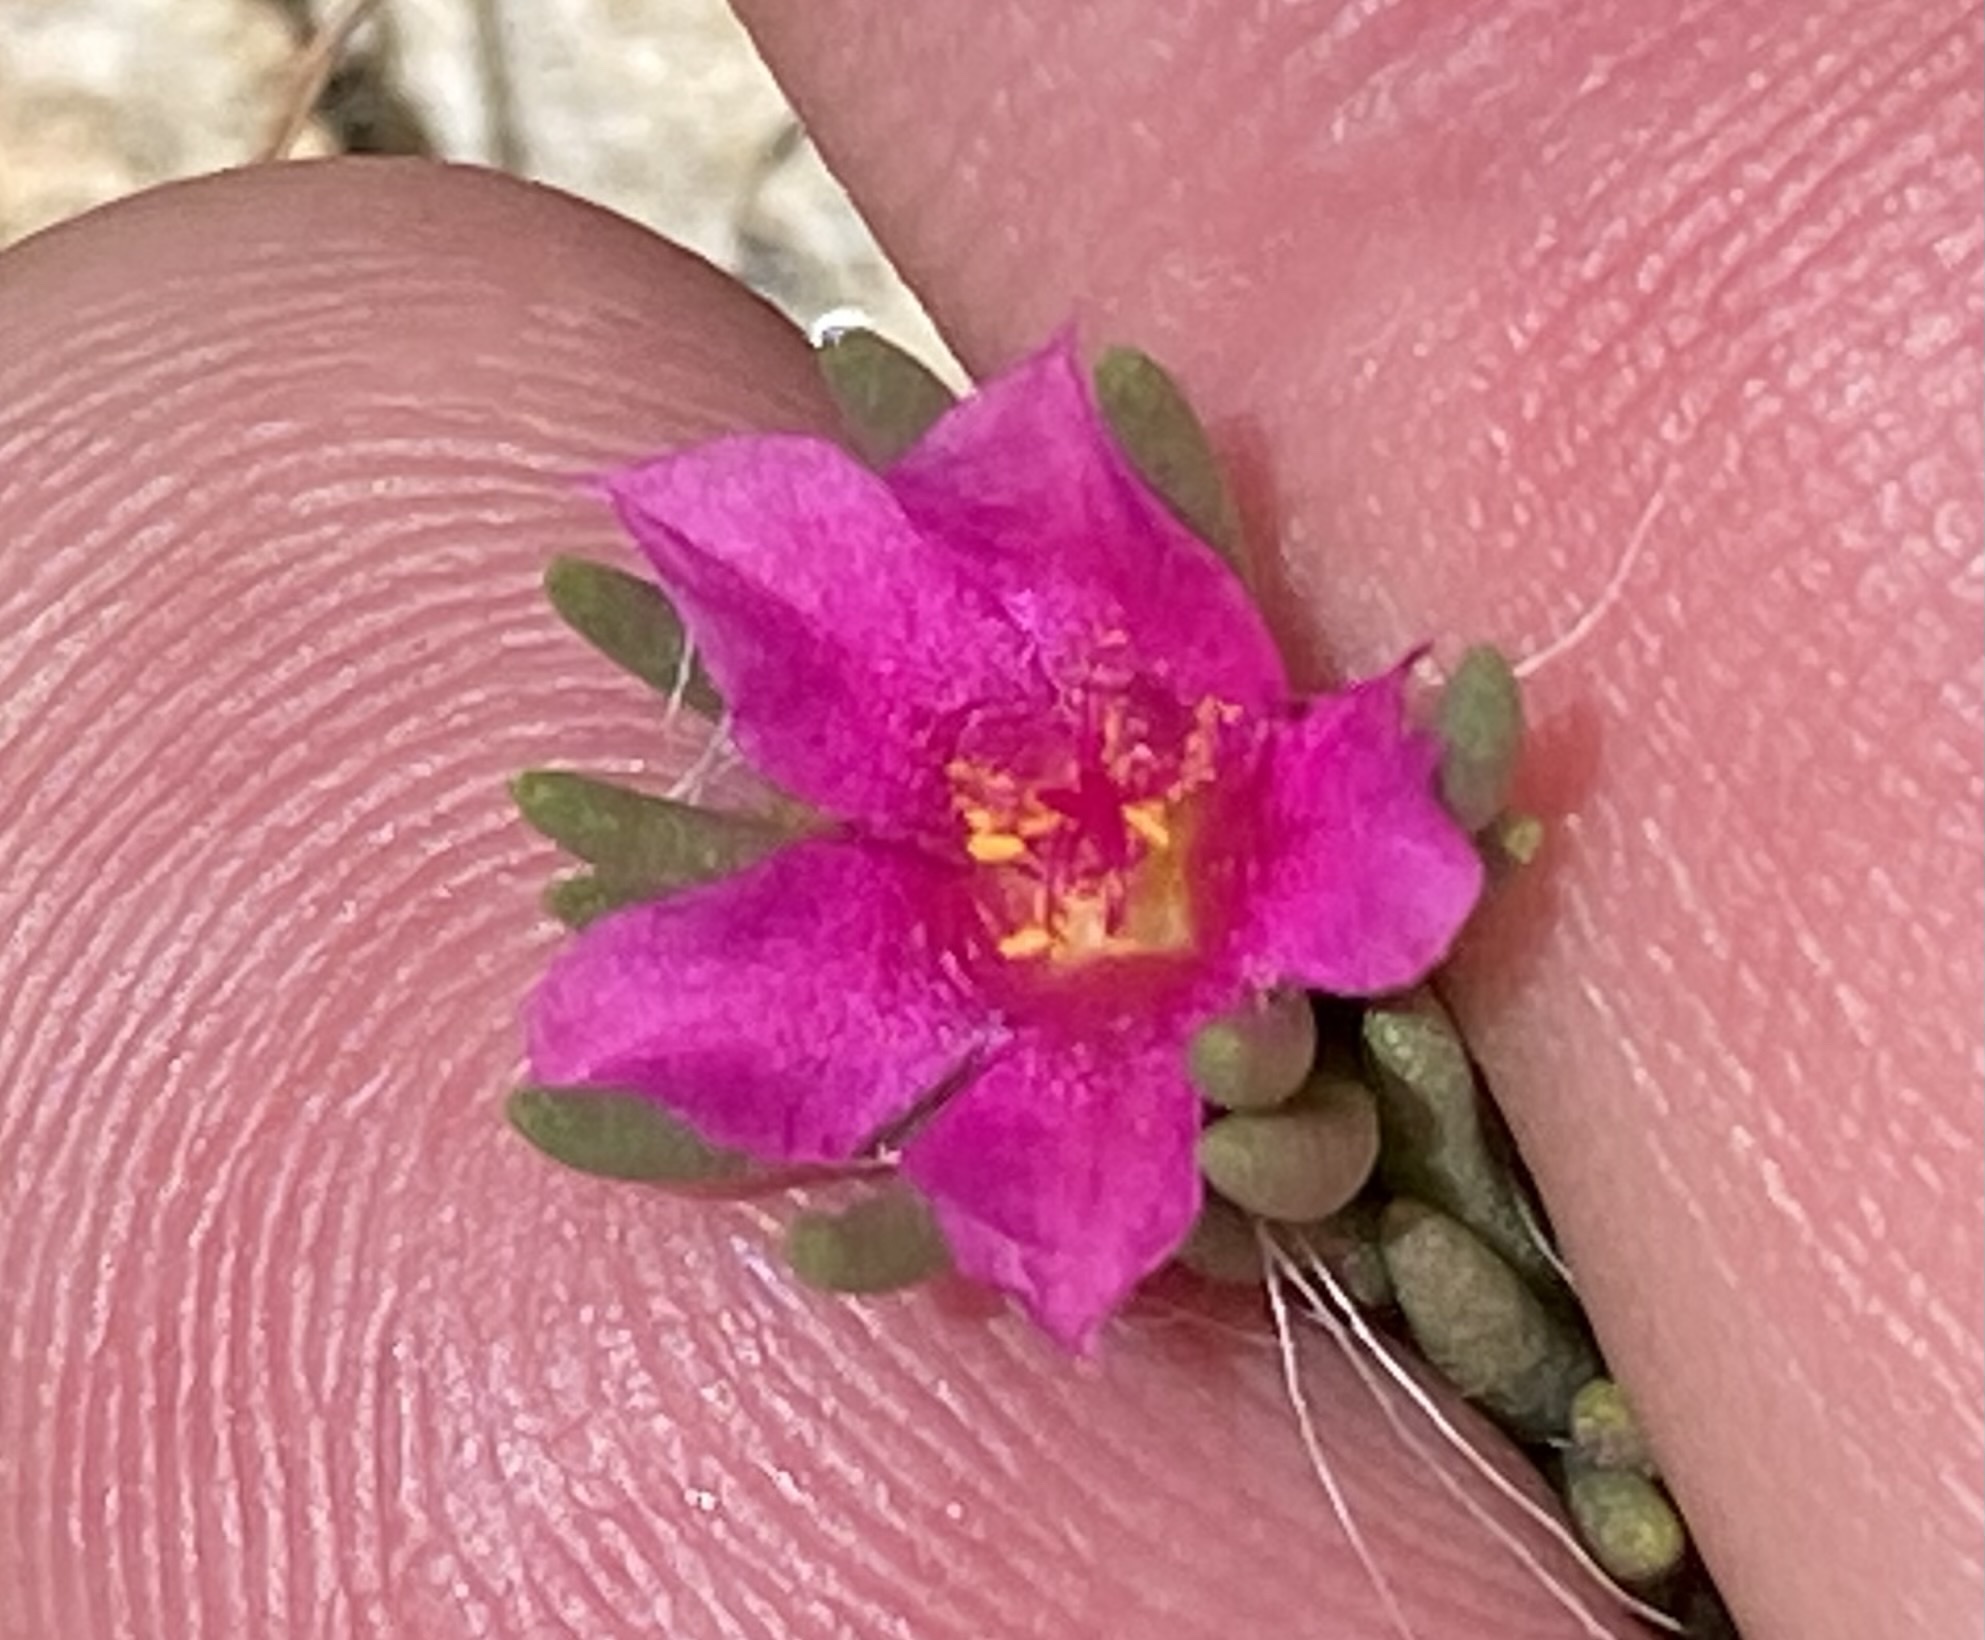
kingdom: Plantae
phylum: Tracheophyta
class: Magnoliopsida
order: Caryophyllales
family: Portulacaceae
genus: Portulaca
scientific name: Portulaca kermesina
